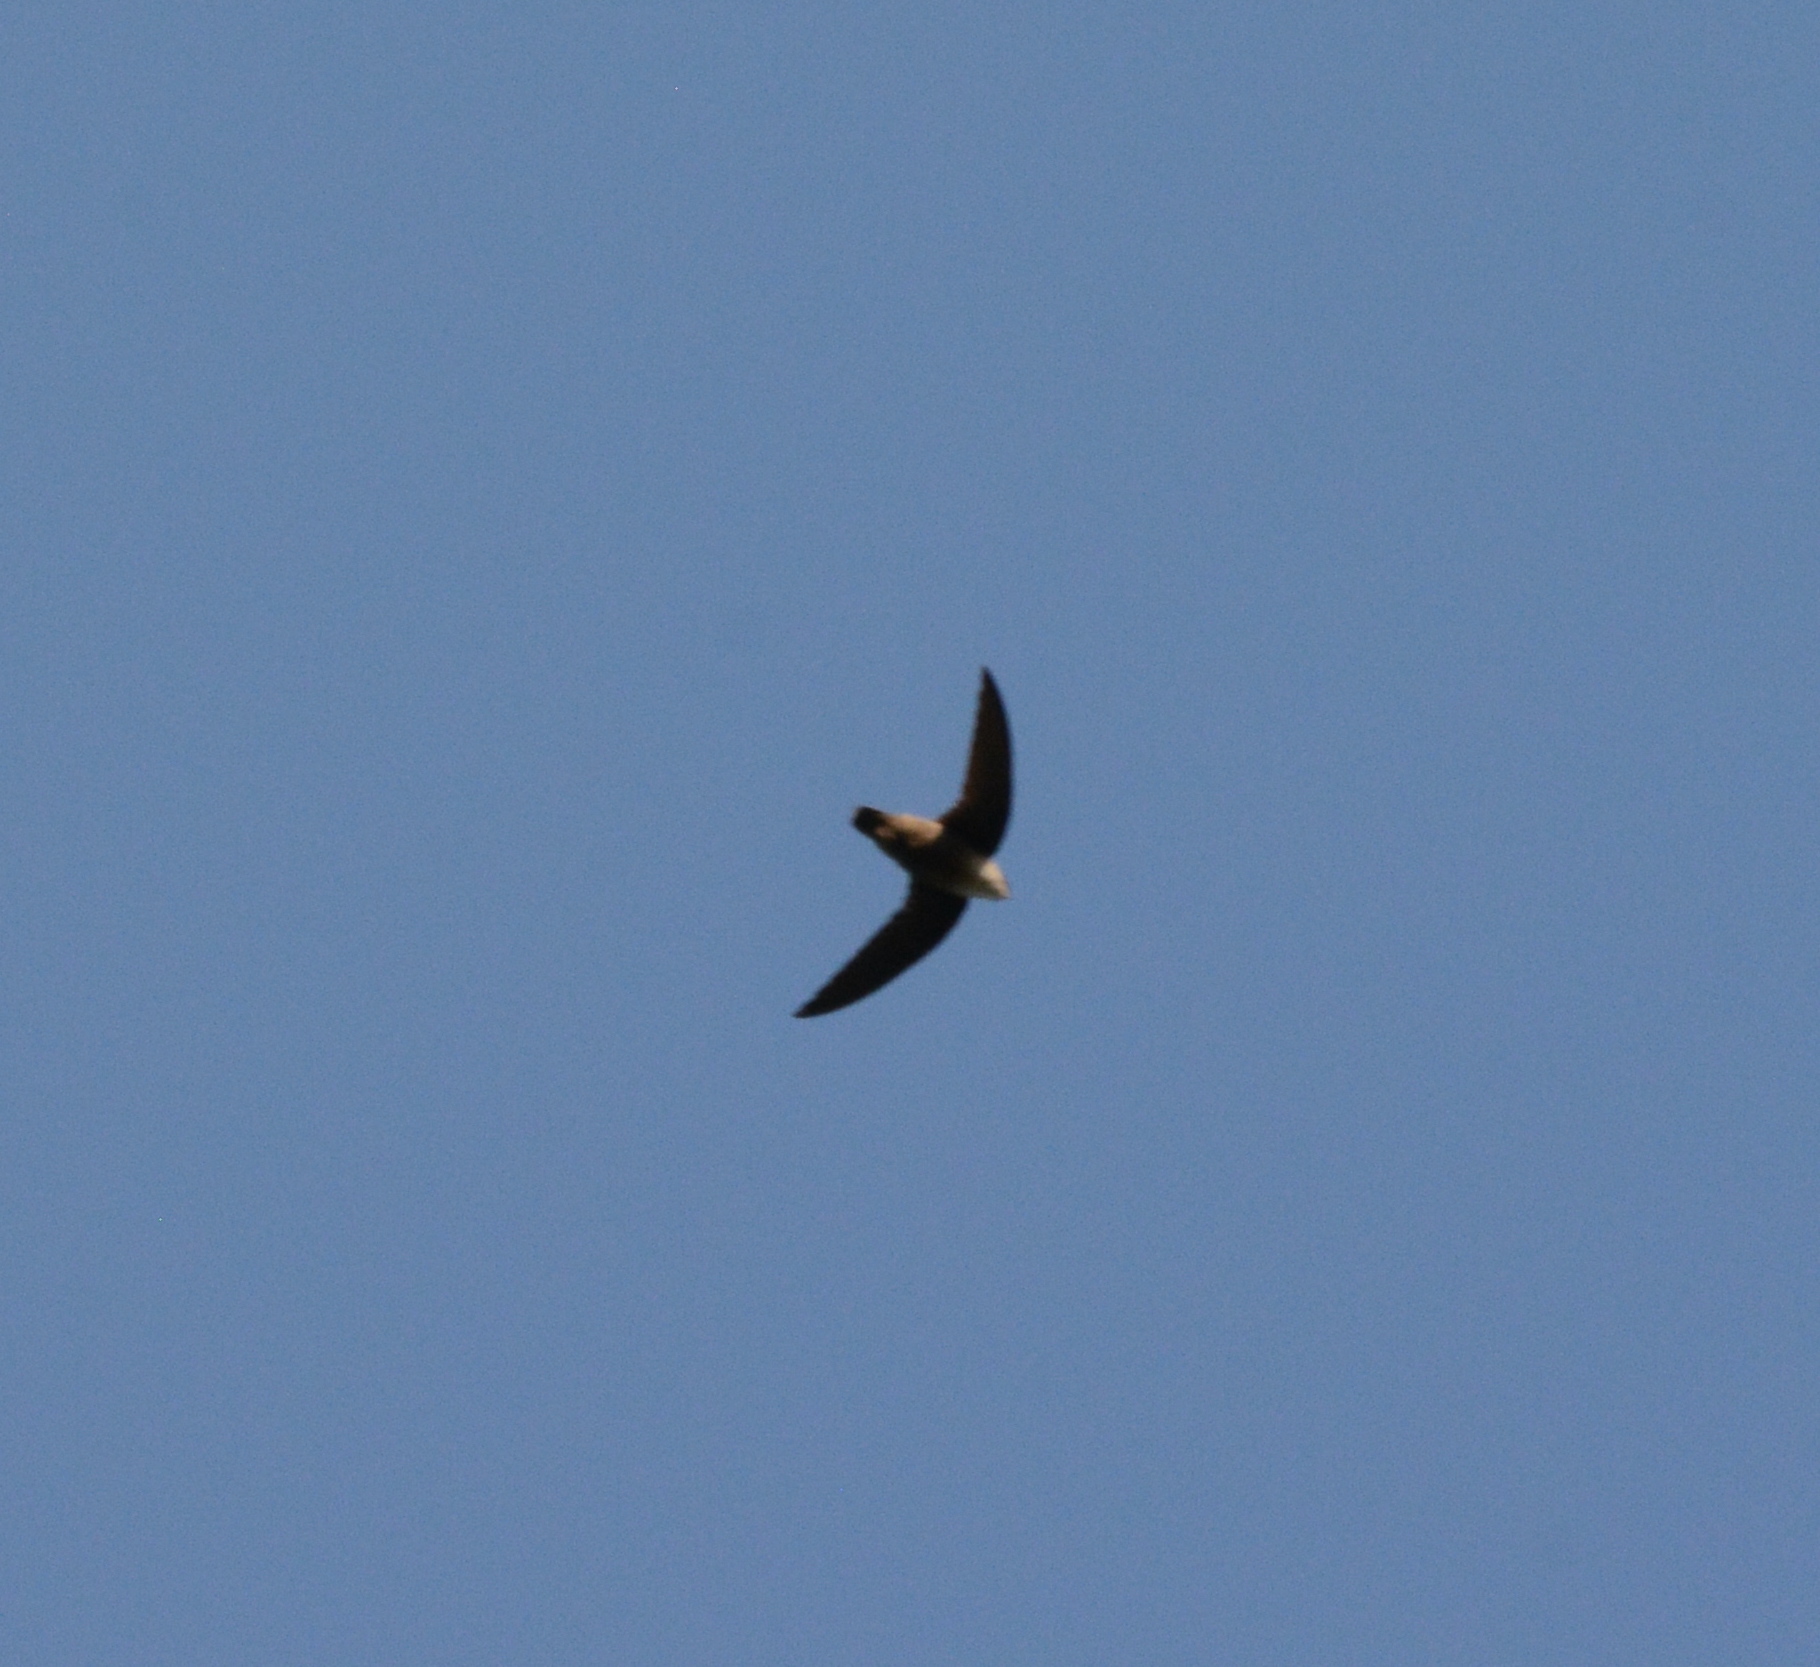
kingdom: Animalia
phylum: Chordata
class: Aves
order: Apodiformes
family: Apodidae
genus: Chaetura
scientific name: Chaetura pelagica
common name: Chimney swift
